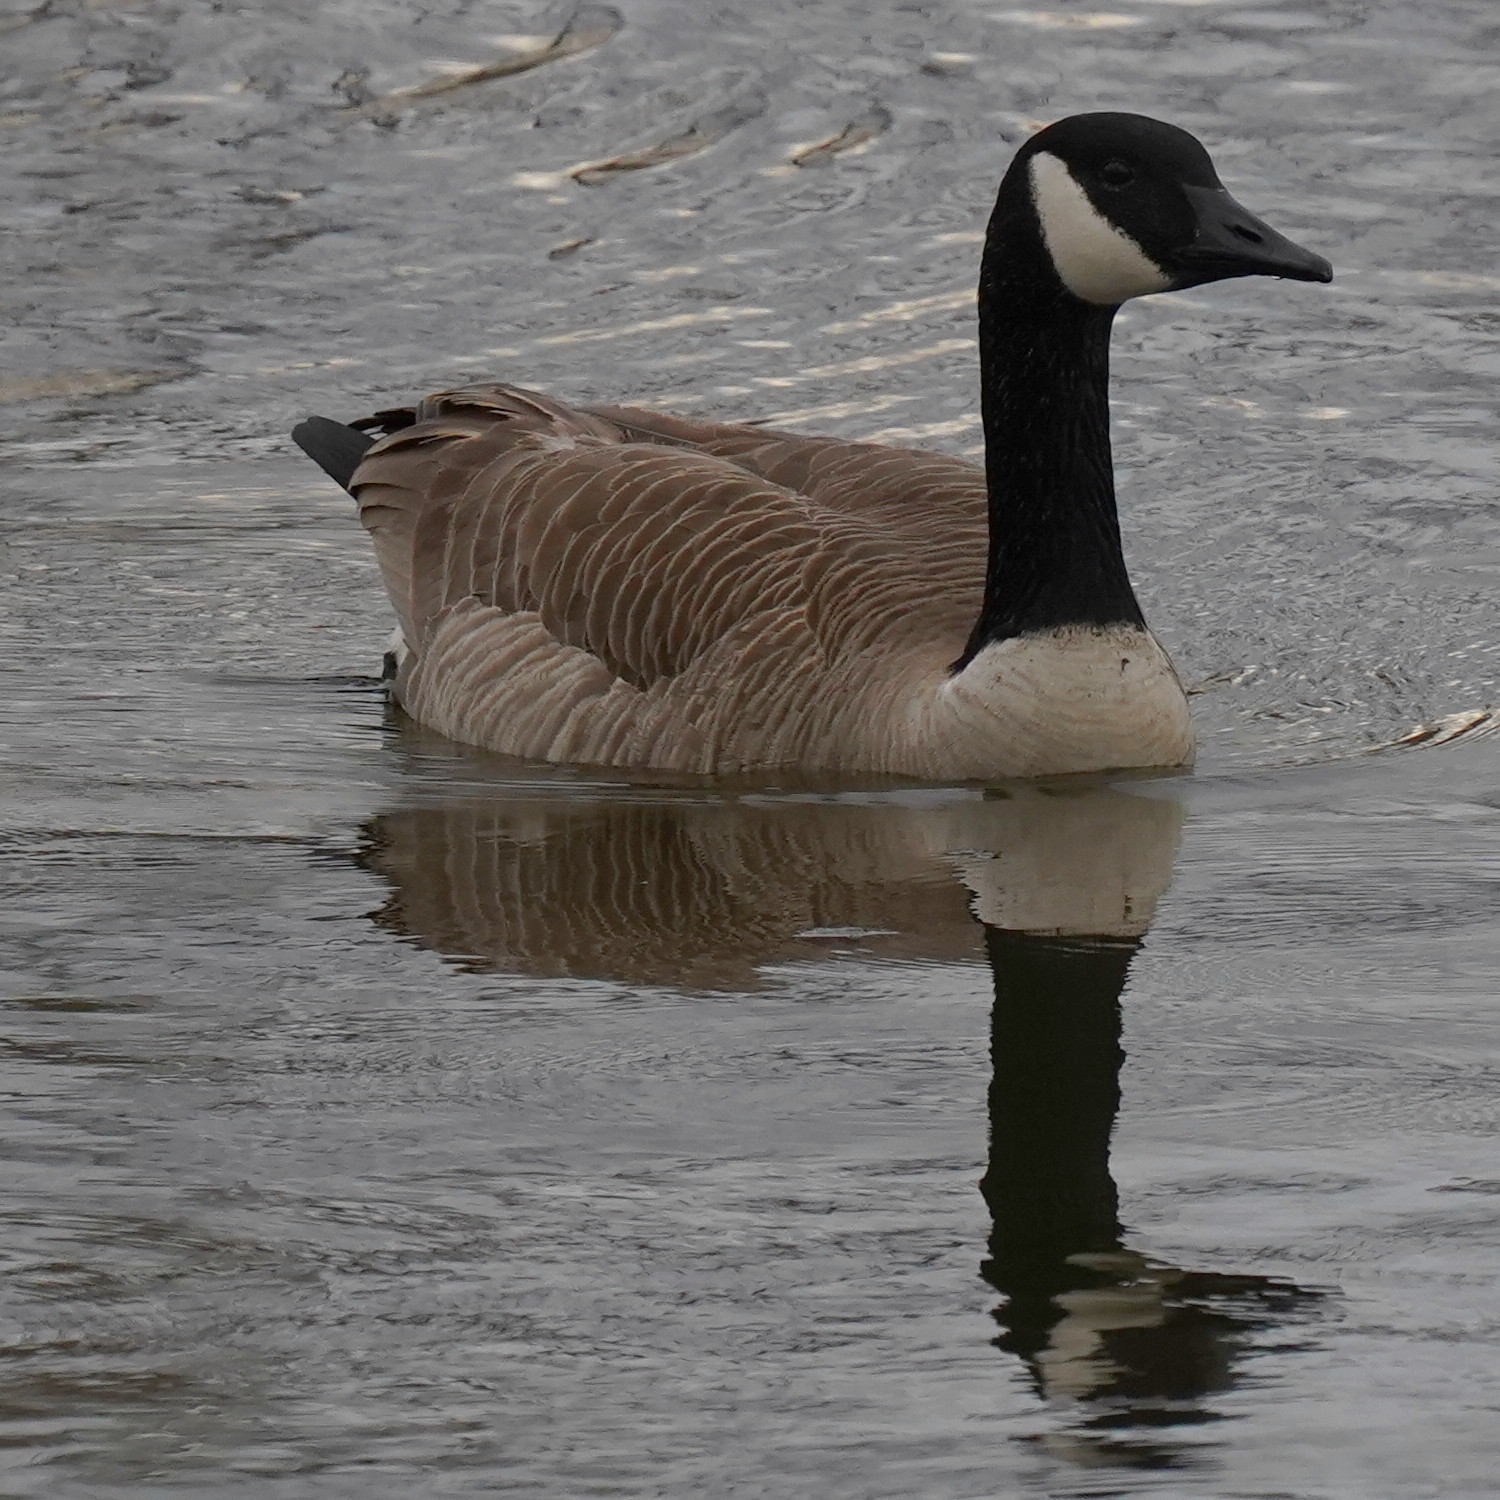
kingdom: Animalia
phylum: Chordata
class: Aves
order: Anseriformes
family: Anatidae
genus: Branta
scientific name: Branta canadensis
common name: Canada goose
